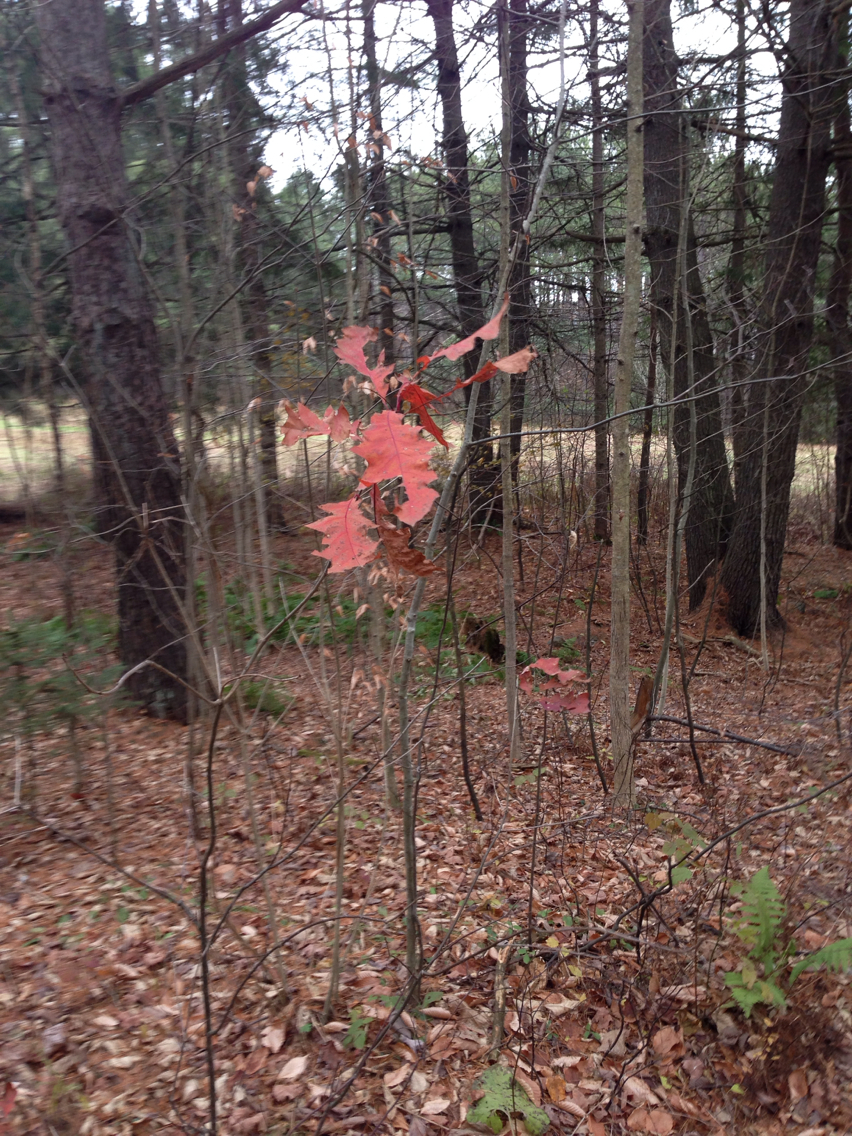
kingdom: Plantae
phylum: Tracheophyta
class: Magnoliopsida
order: Fagales
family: Fagaceae
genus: Quercus
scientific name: Quercus rubra
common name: Red oak
